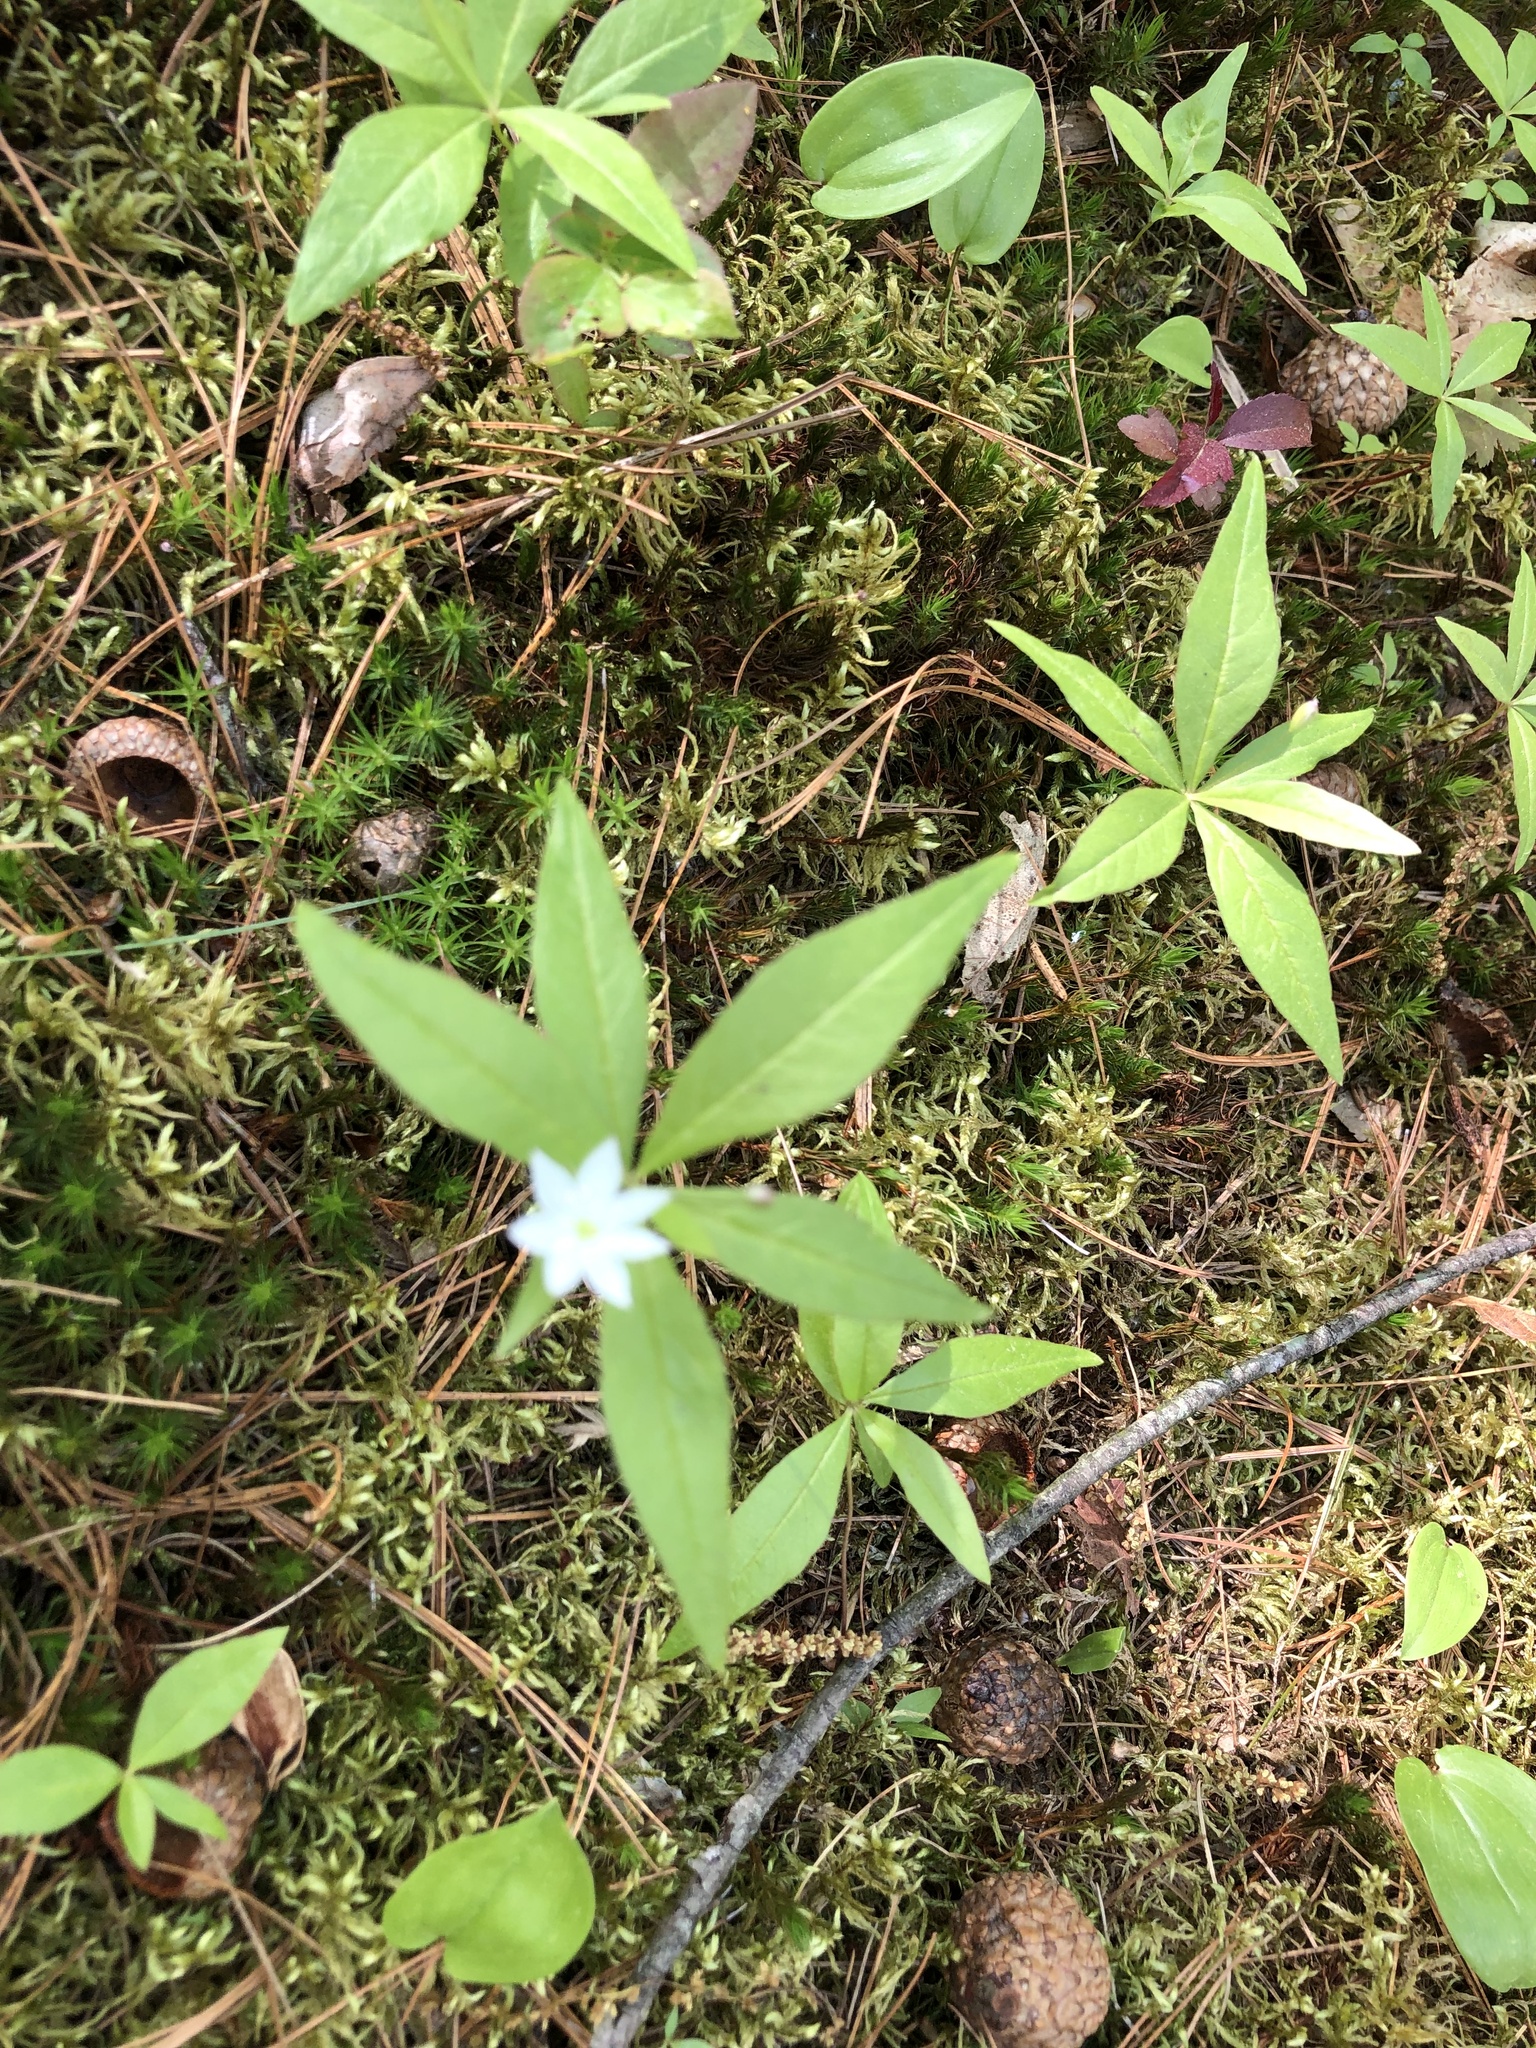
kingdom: Plantae
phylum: Tracheophyta
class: Magnoliopsida
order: Ericales
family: Primulaceae
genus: Lysimachia
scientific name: Lysimachia borealis
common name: American starflower
